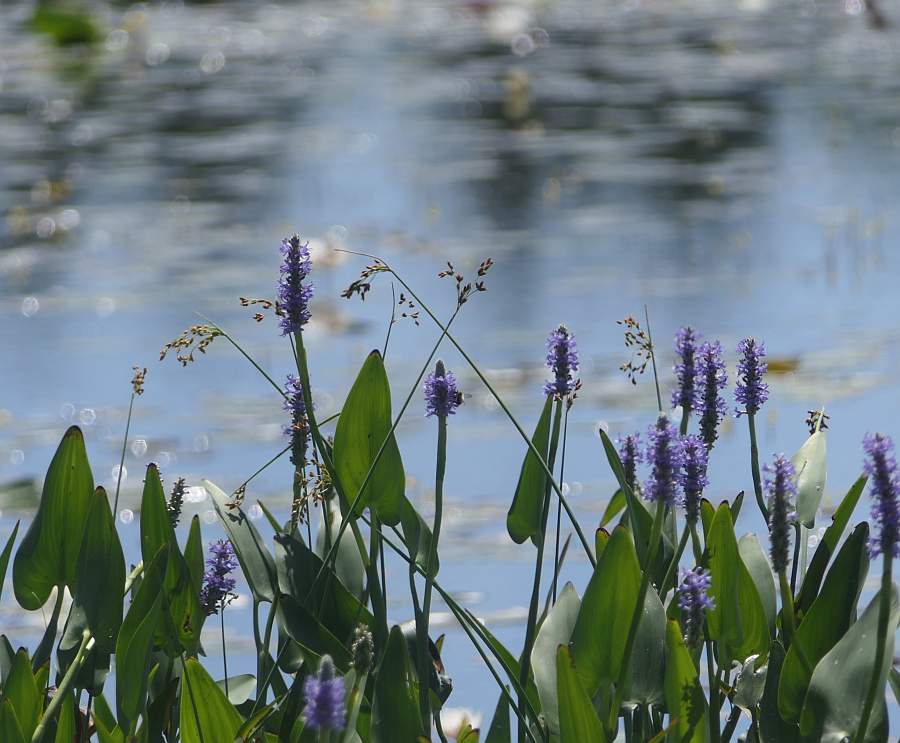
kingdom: Plantae
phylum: Tracheophyta
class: Liliopsida
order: Commelinales
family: Pontederiaceae
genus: Pontederia
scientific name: Pontederia cordata
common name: Pickerelweed
